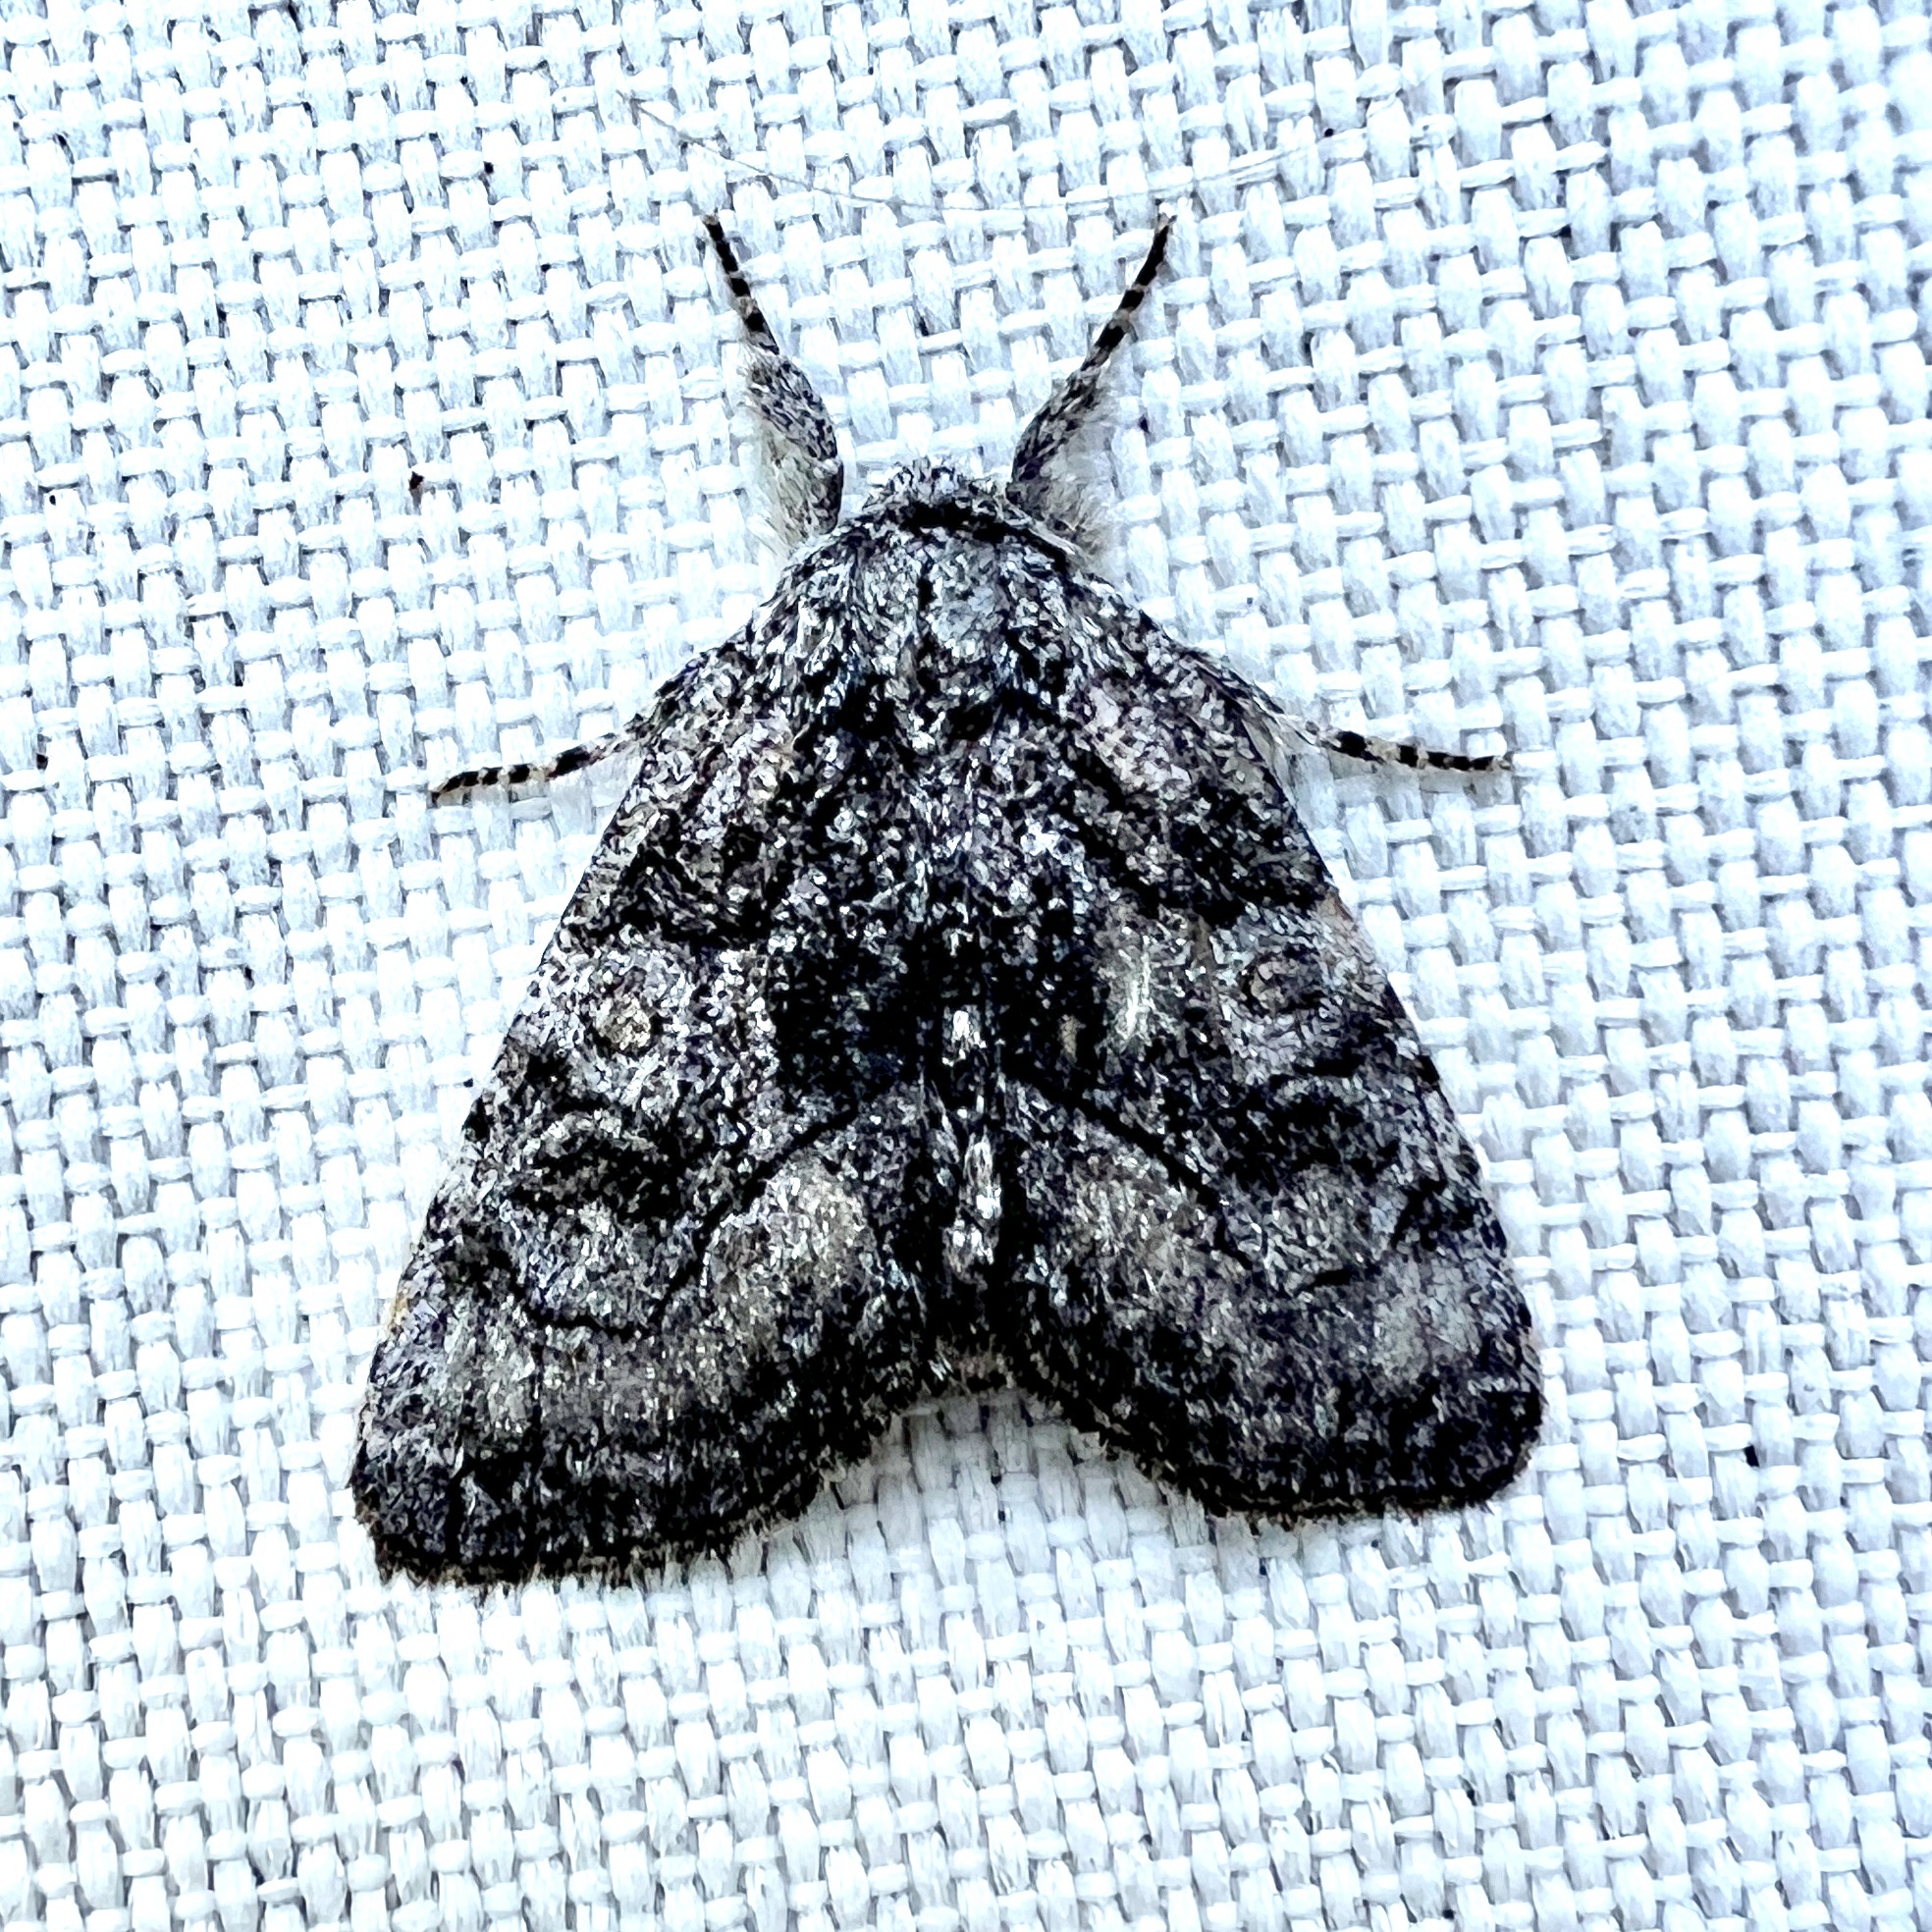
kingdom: Animalia
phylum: Arthropoda
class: Insecta
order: Lepidoptera
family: Noctuidae
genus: Raphia
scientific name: Raphia frater
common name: Brother
